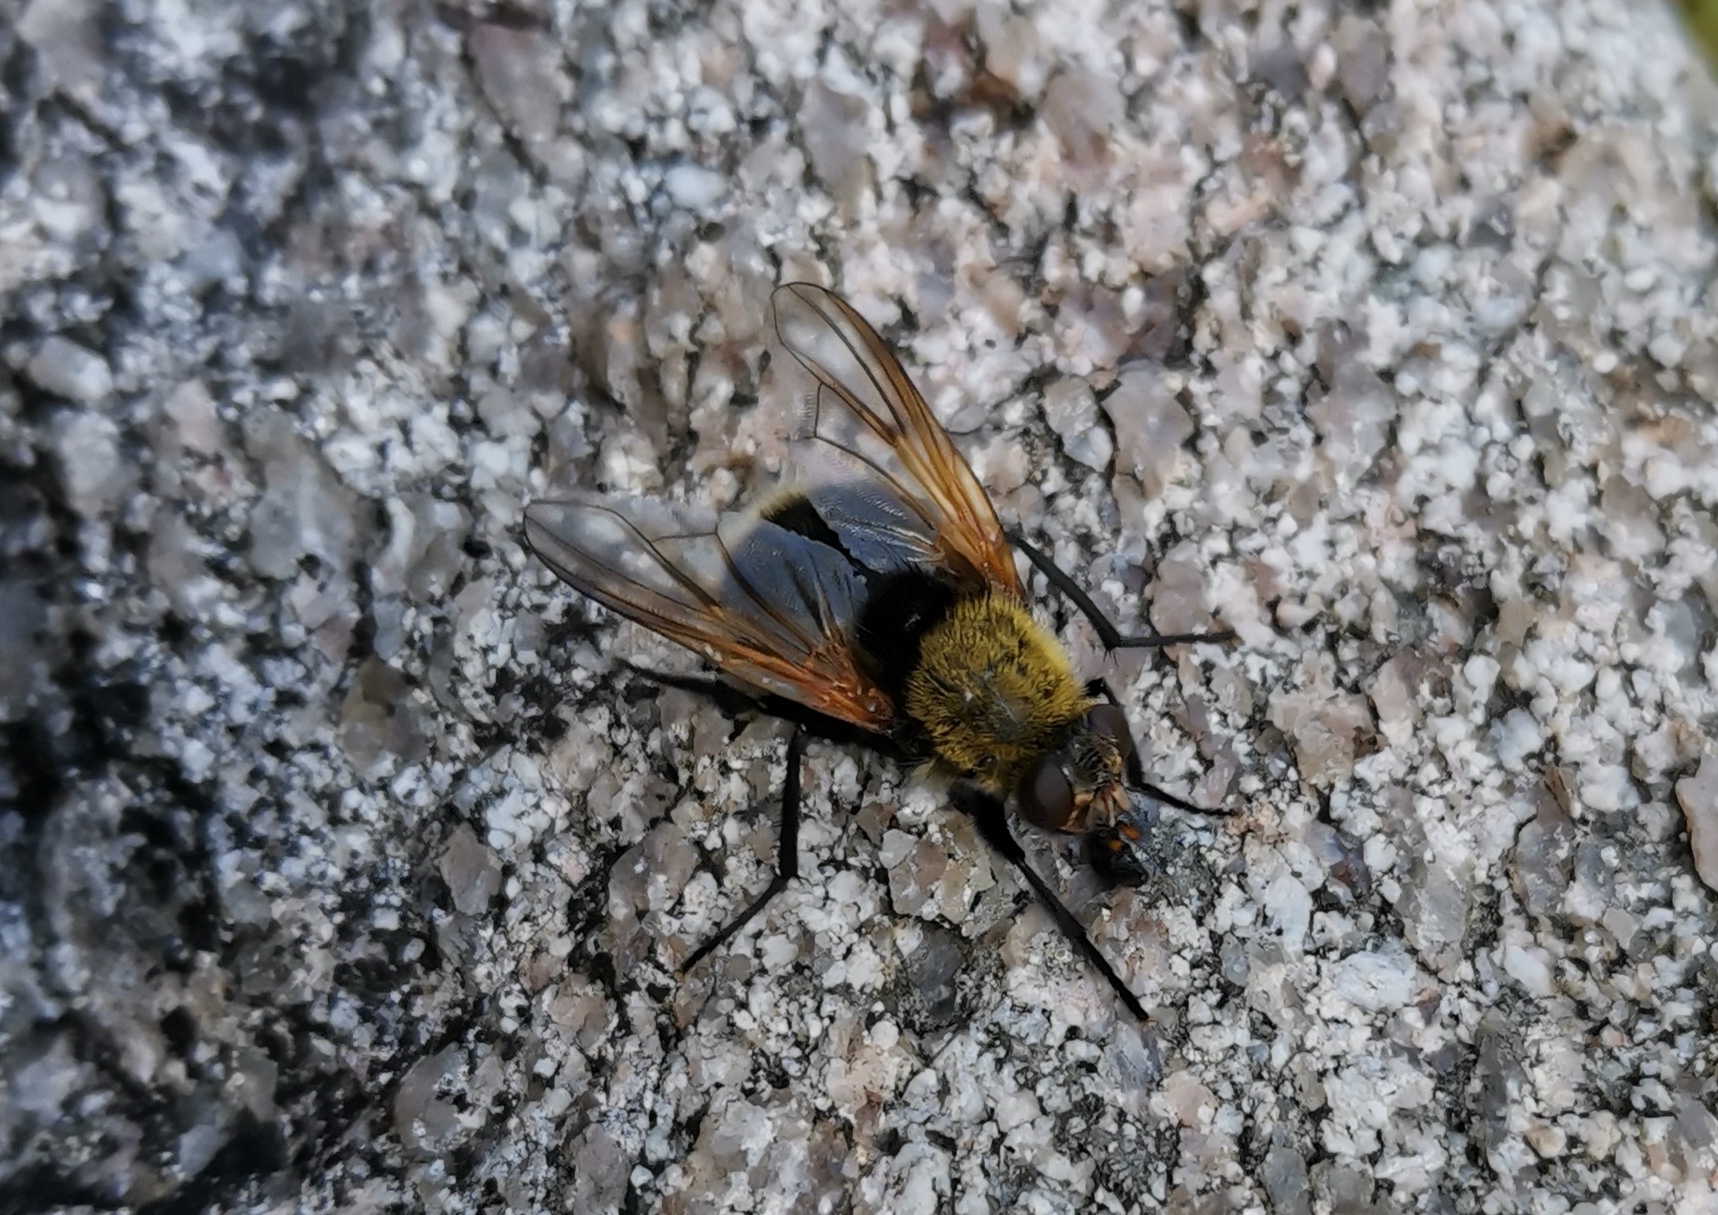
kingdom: Animalia
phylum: Arthropoda
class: Insecta
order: Diptera
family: Muscidae
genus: Mesembrina
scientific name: Mesembrina mystacea
